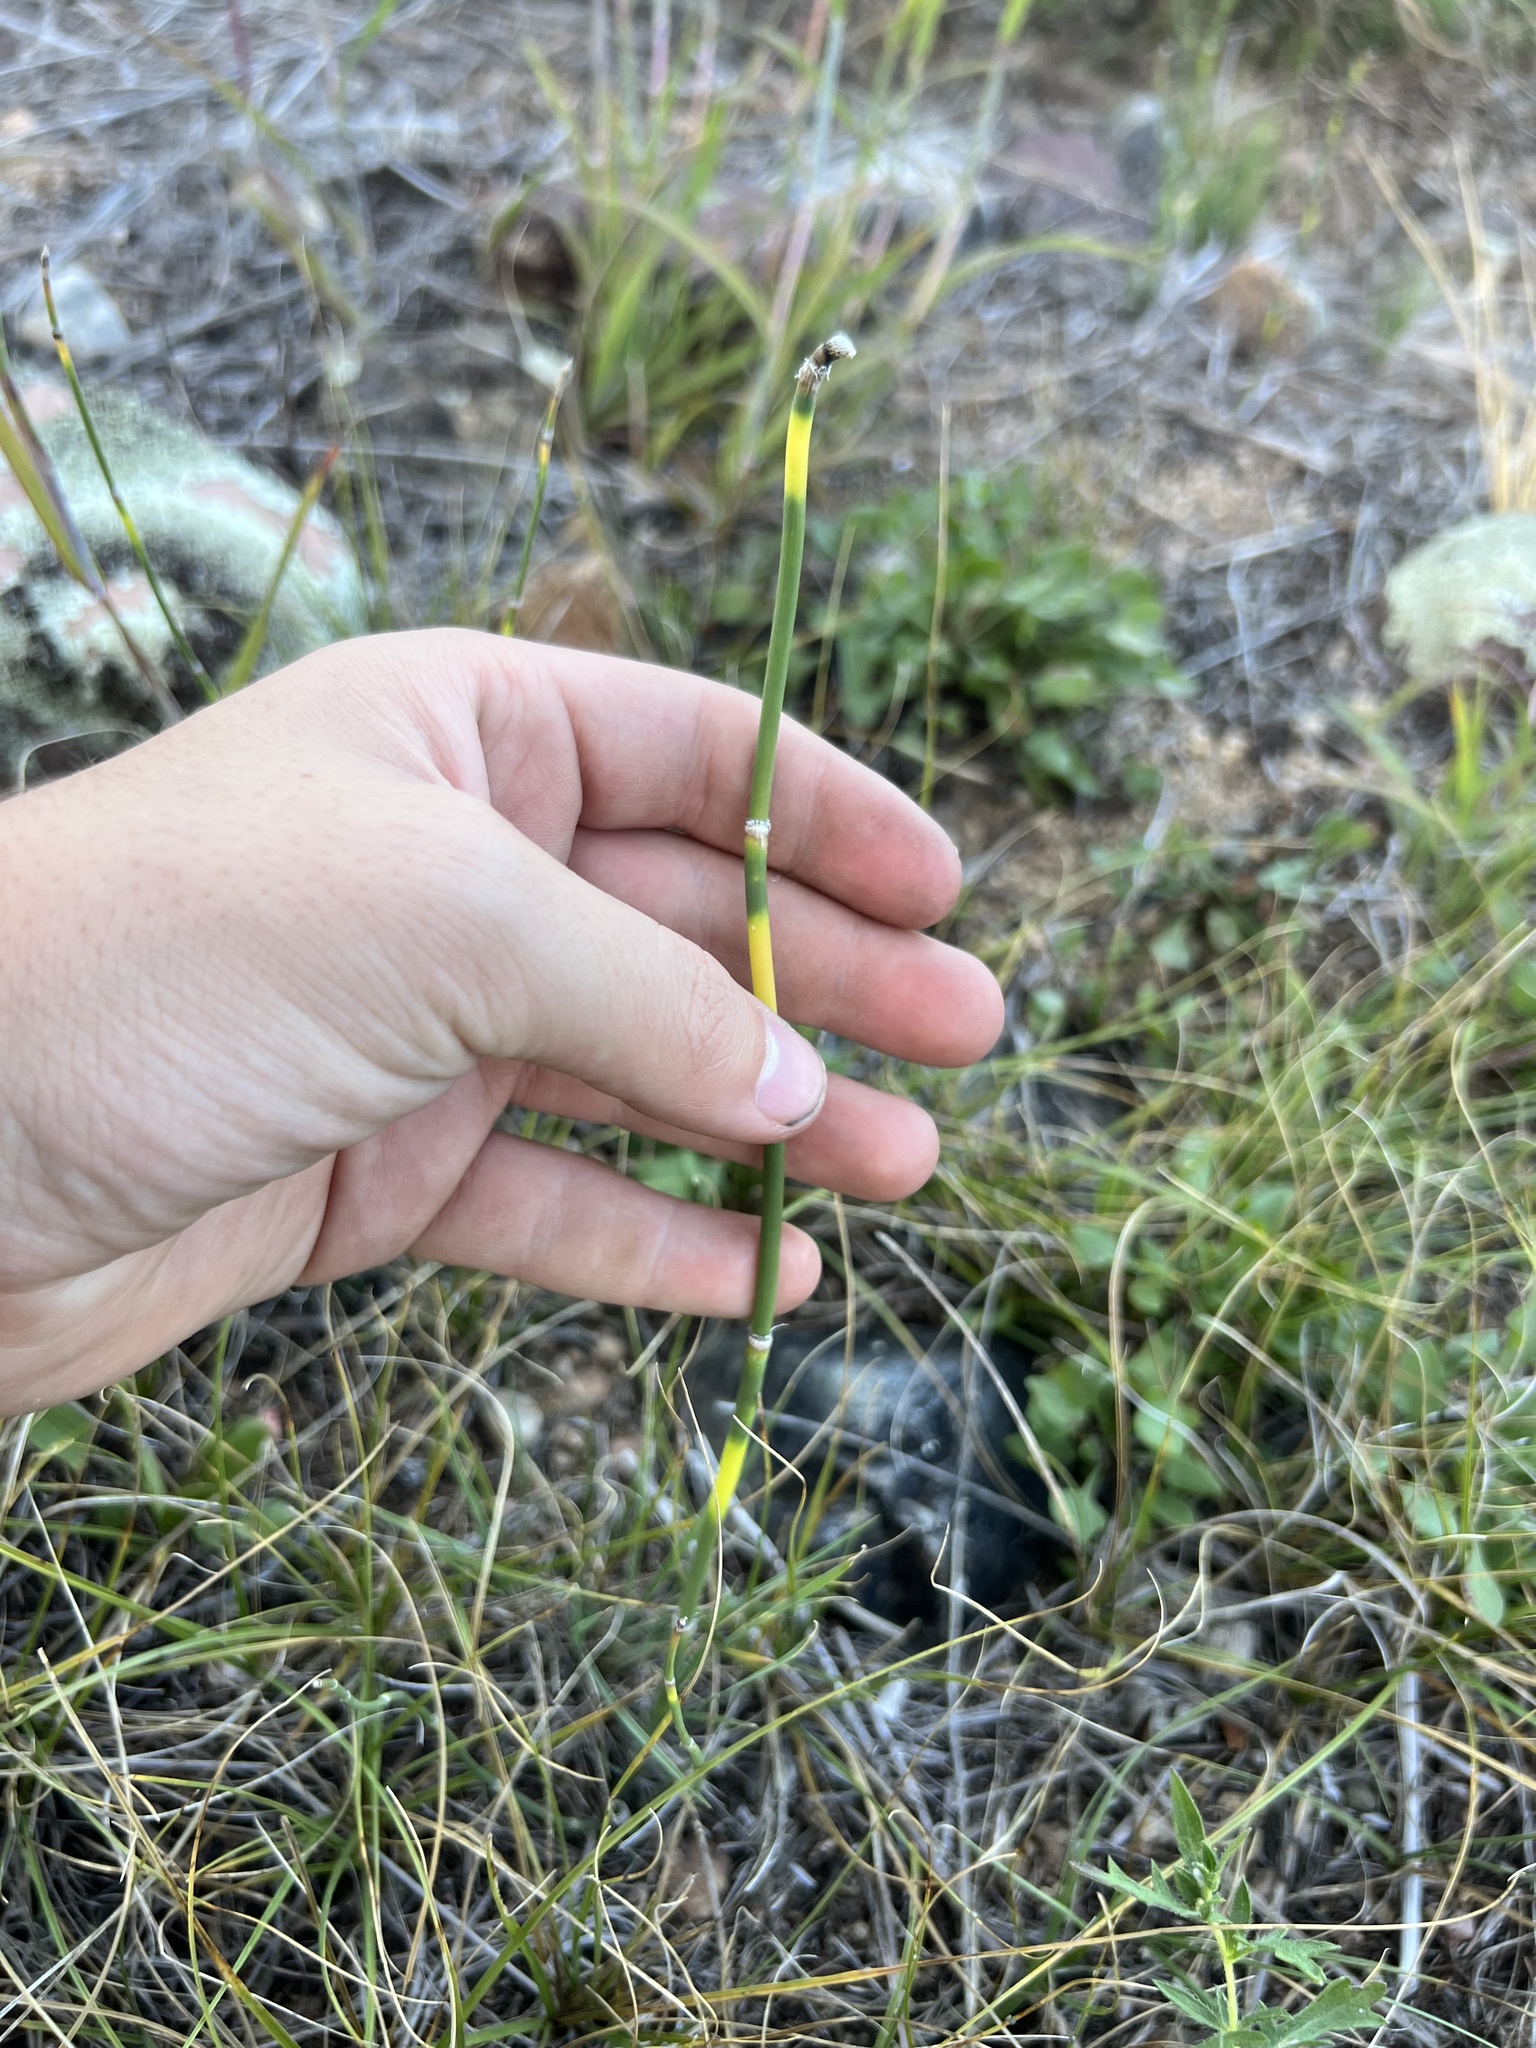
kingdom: Plantae
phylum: Tracheophyta
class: Polypodiopsida
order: Equisetales
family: Equisetaceae
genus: Equisetum
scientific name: Equisetum laevigatum
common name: Smooth scouring-rush
